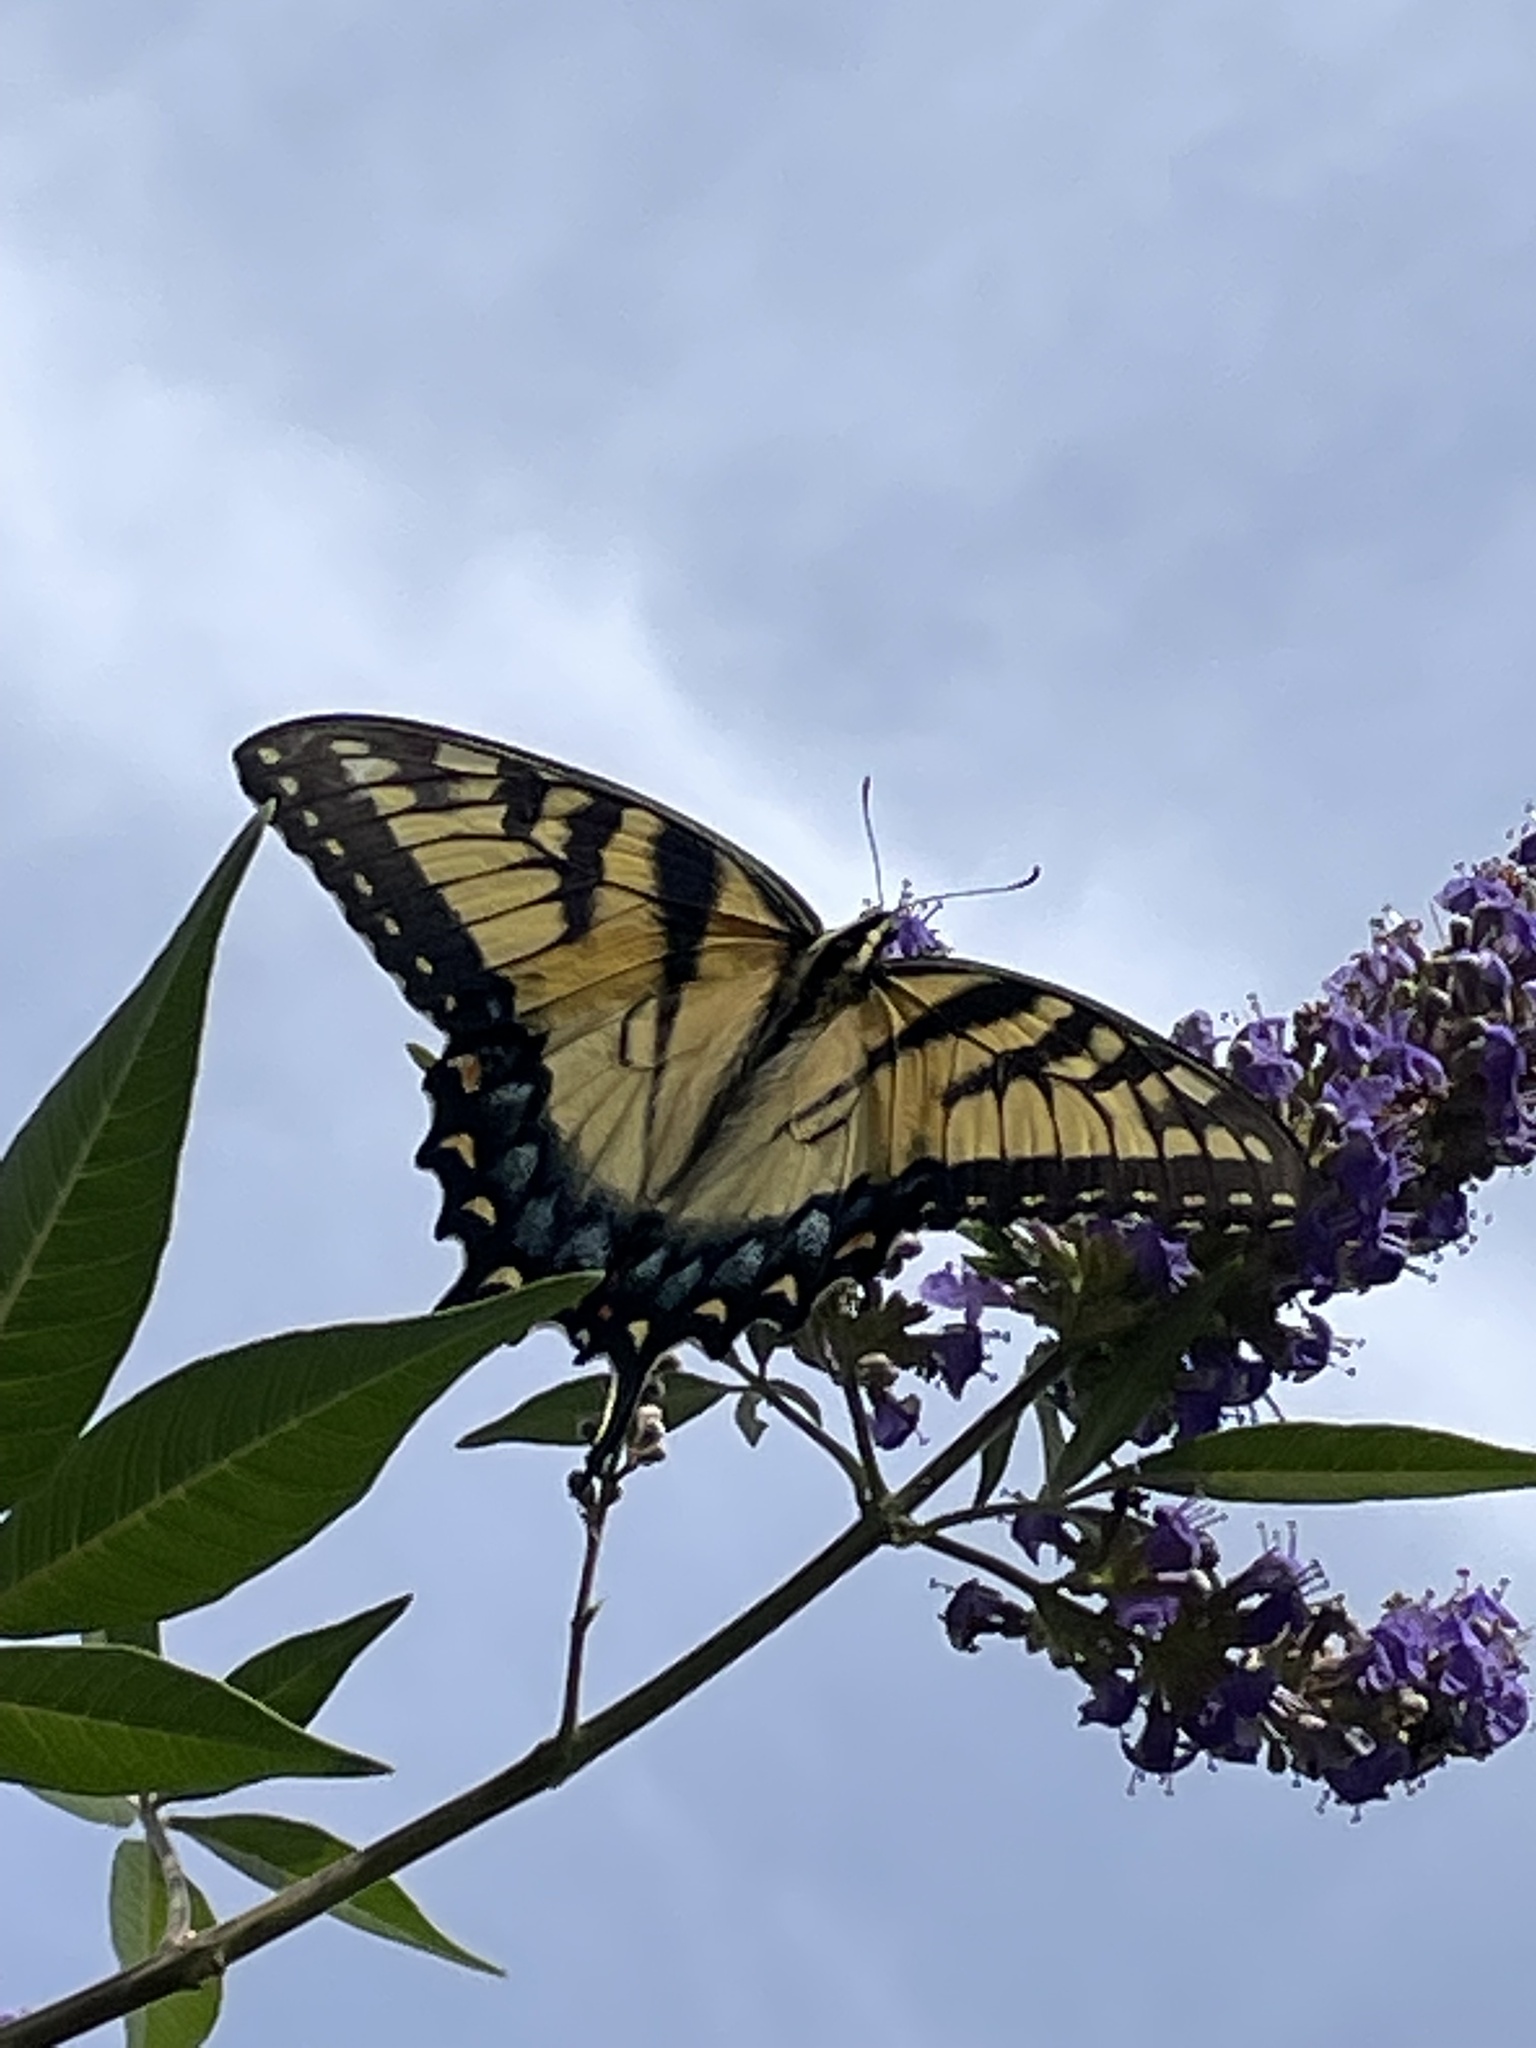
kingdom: Animalia
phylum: Arthropoda
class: Insecta
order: Lepidoptera
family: Papilionidae
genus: Papilio
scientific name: Papilio glaucus
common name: Tiger swallowtail
